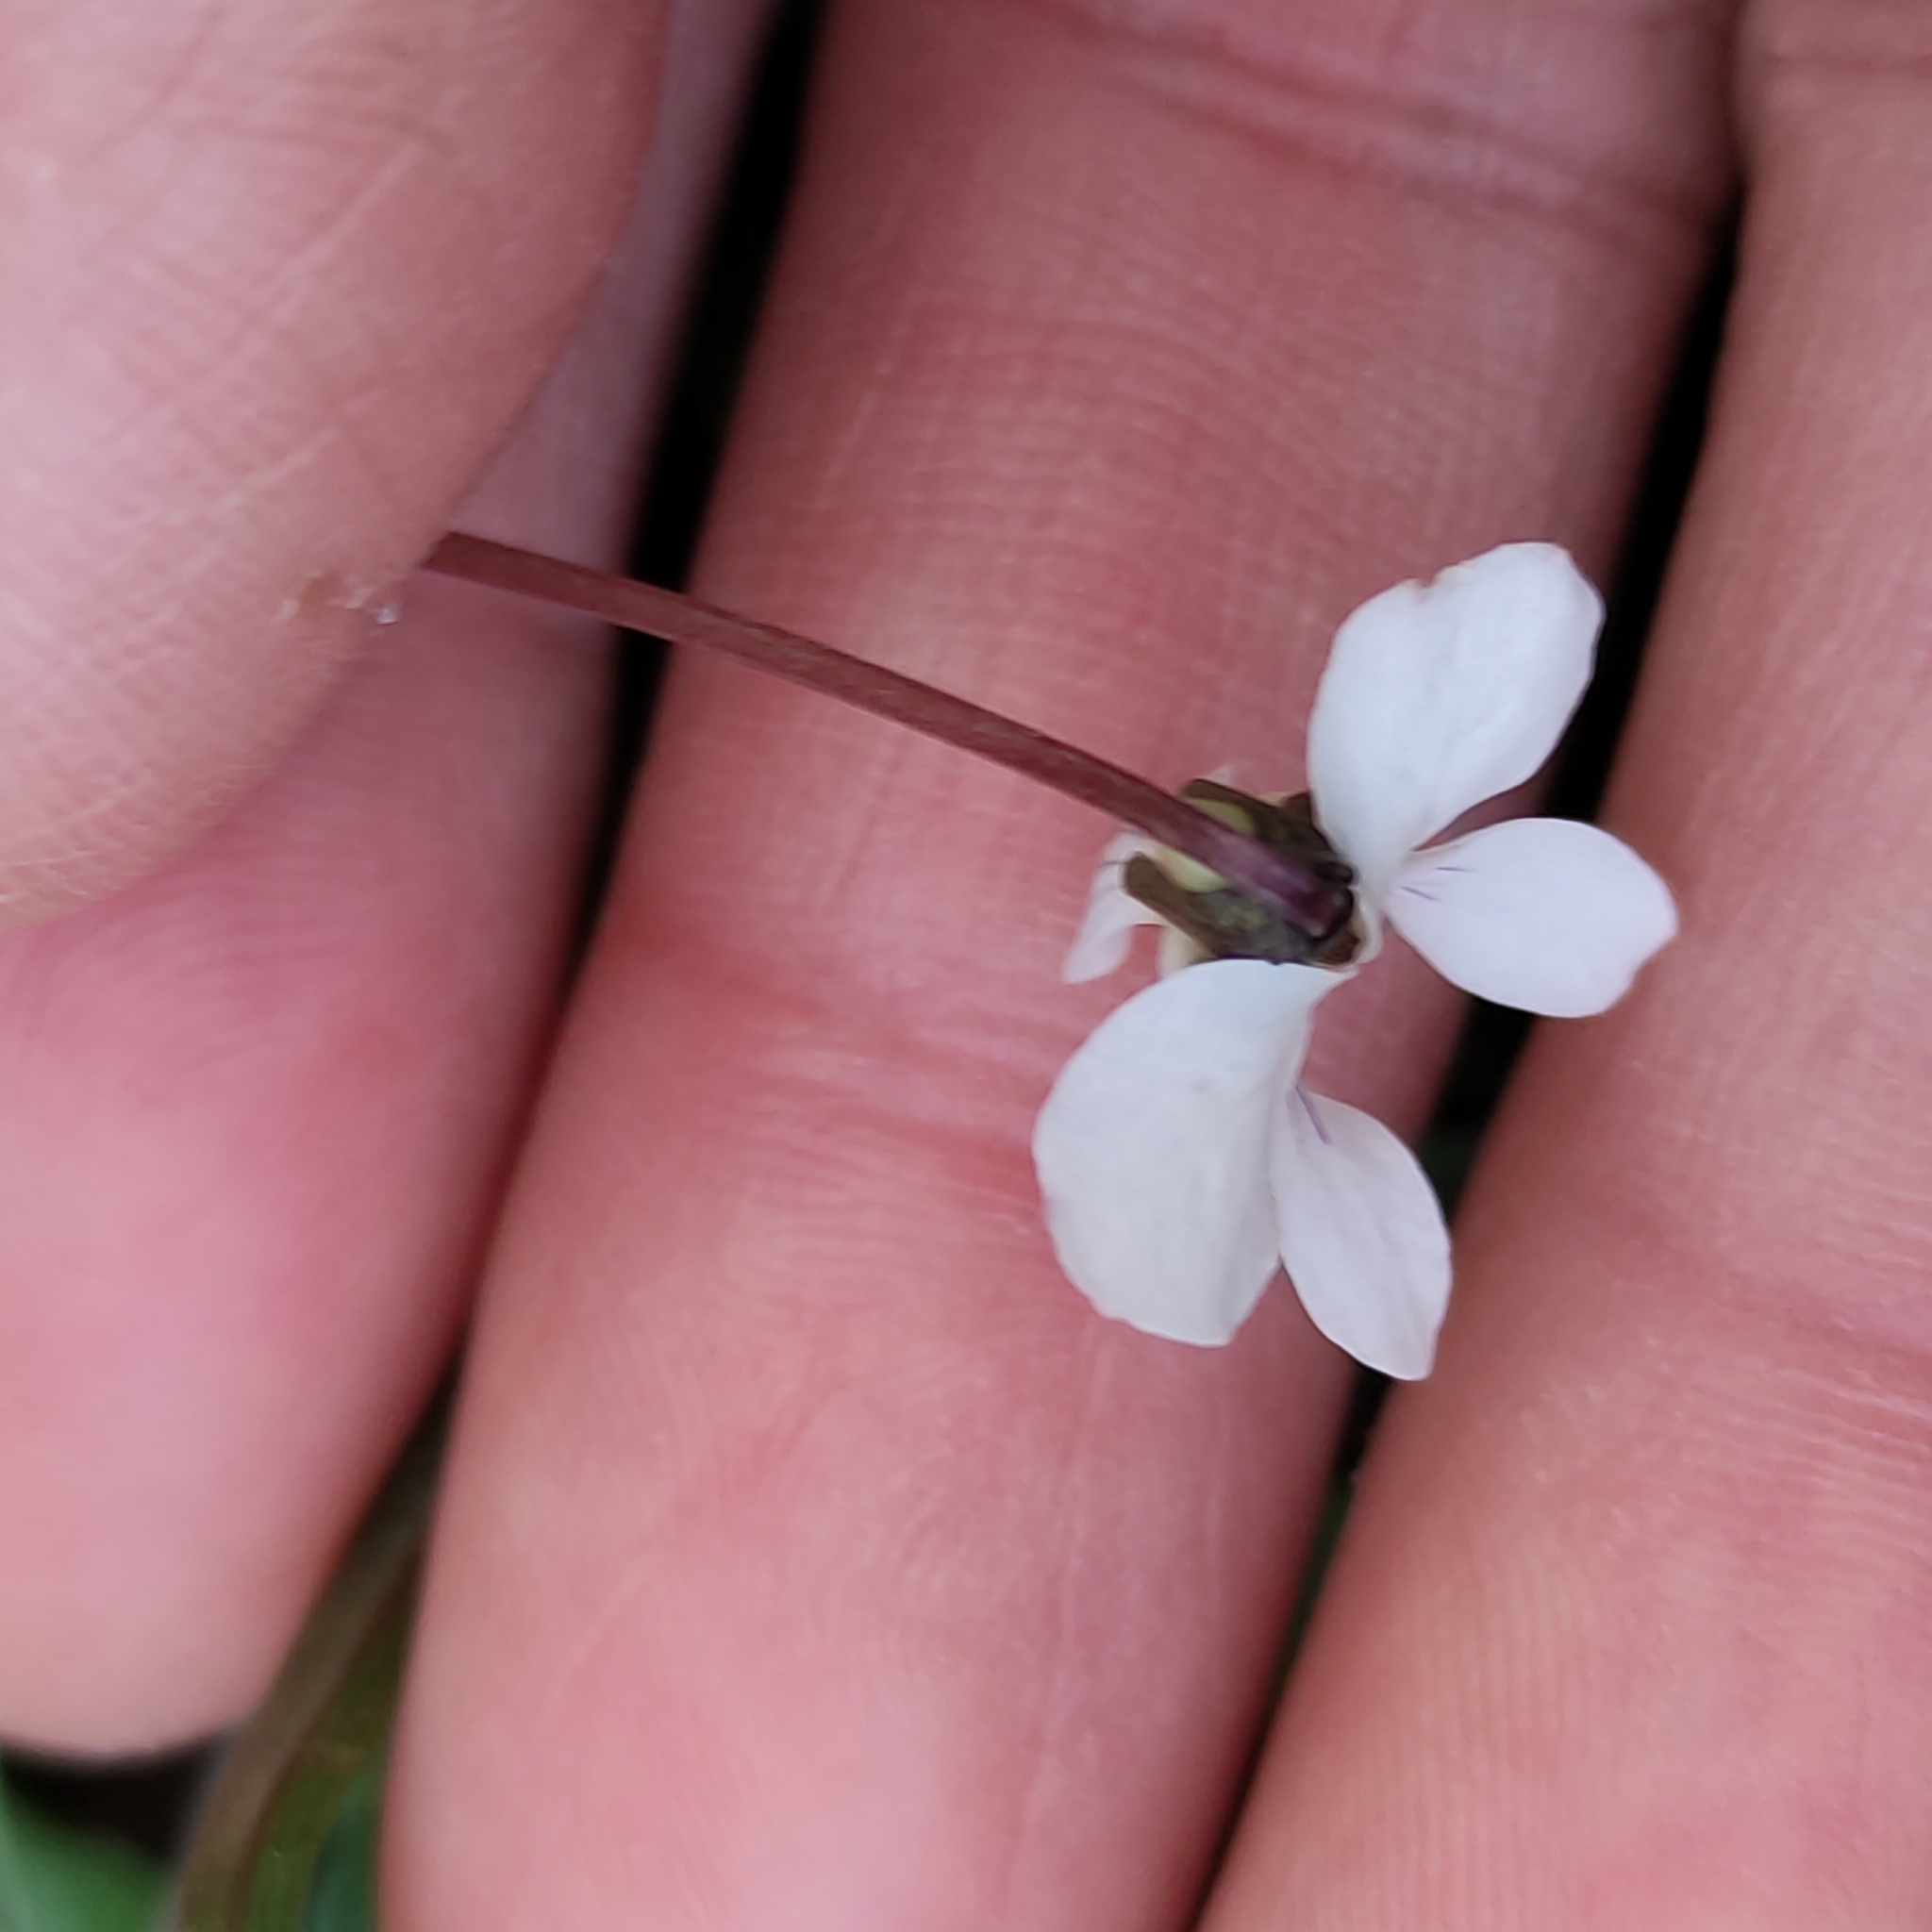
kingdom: Plantae
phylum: Tracheophyta
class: Magnoliopsida
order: Malpighiales
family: Violaceae
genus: Viola
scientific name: Viola cunninghamii
